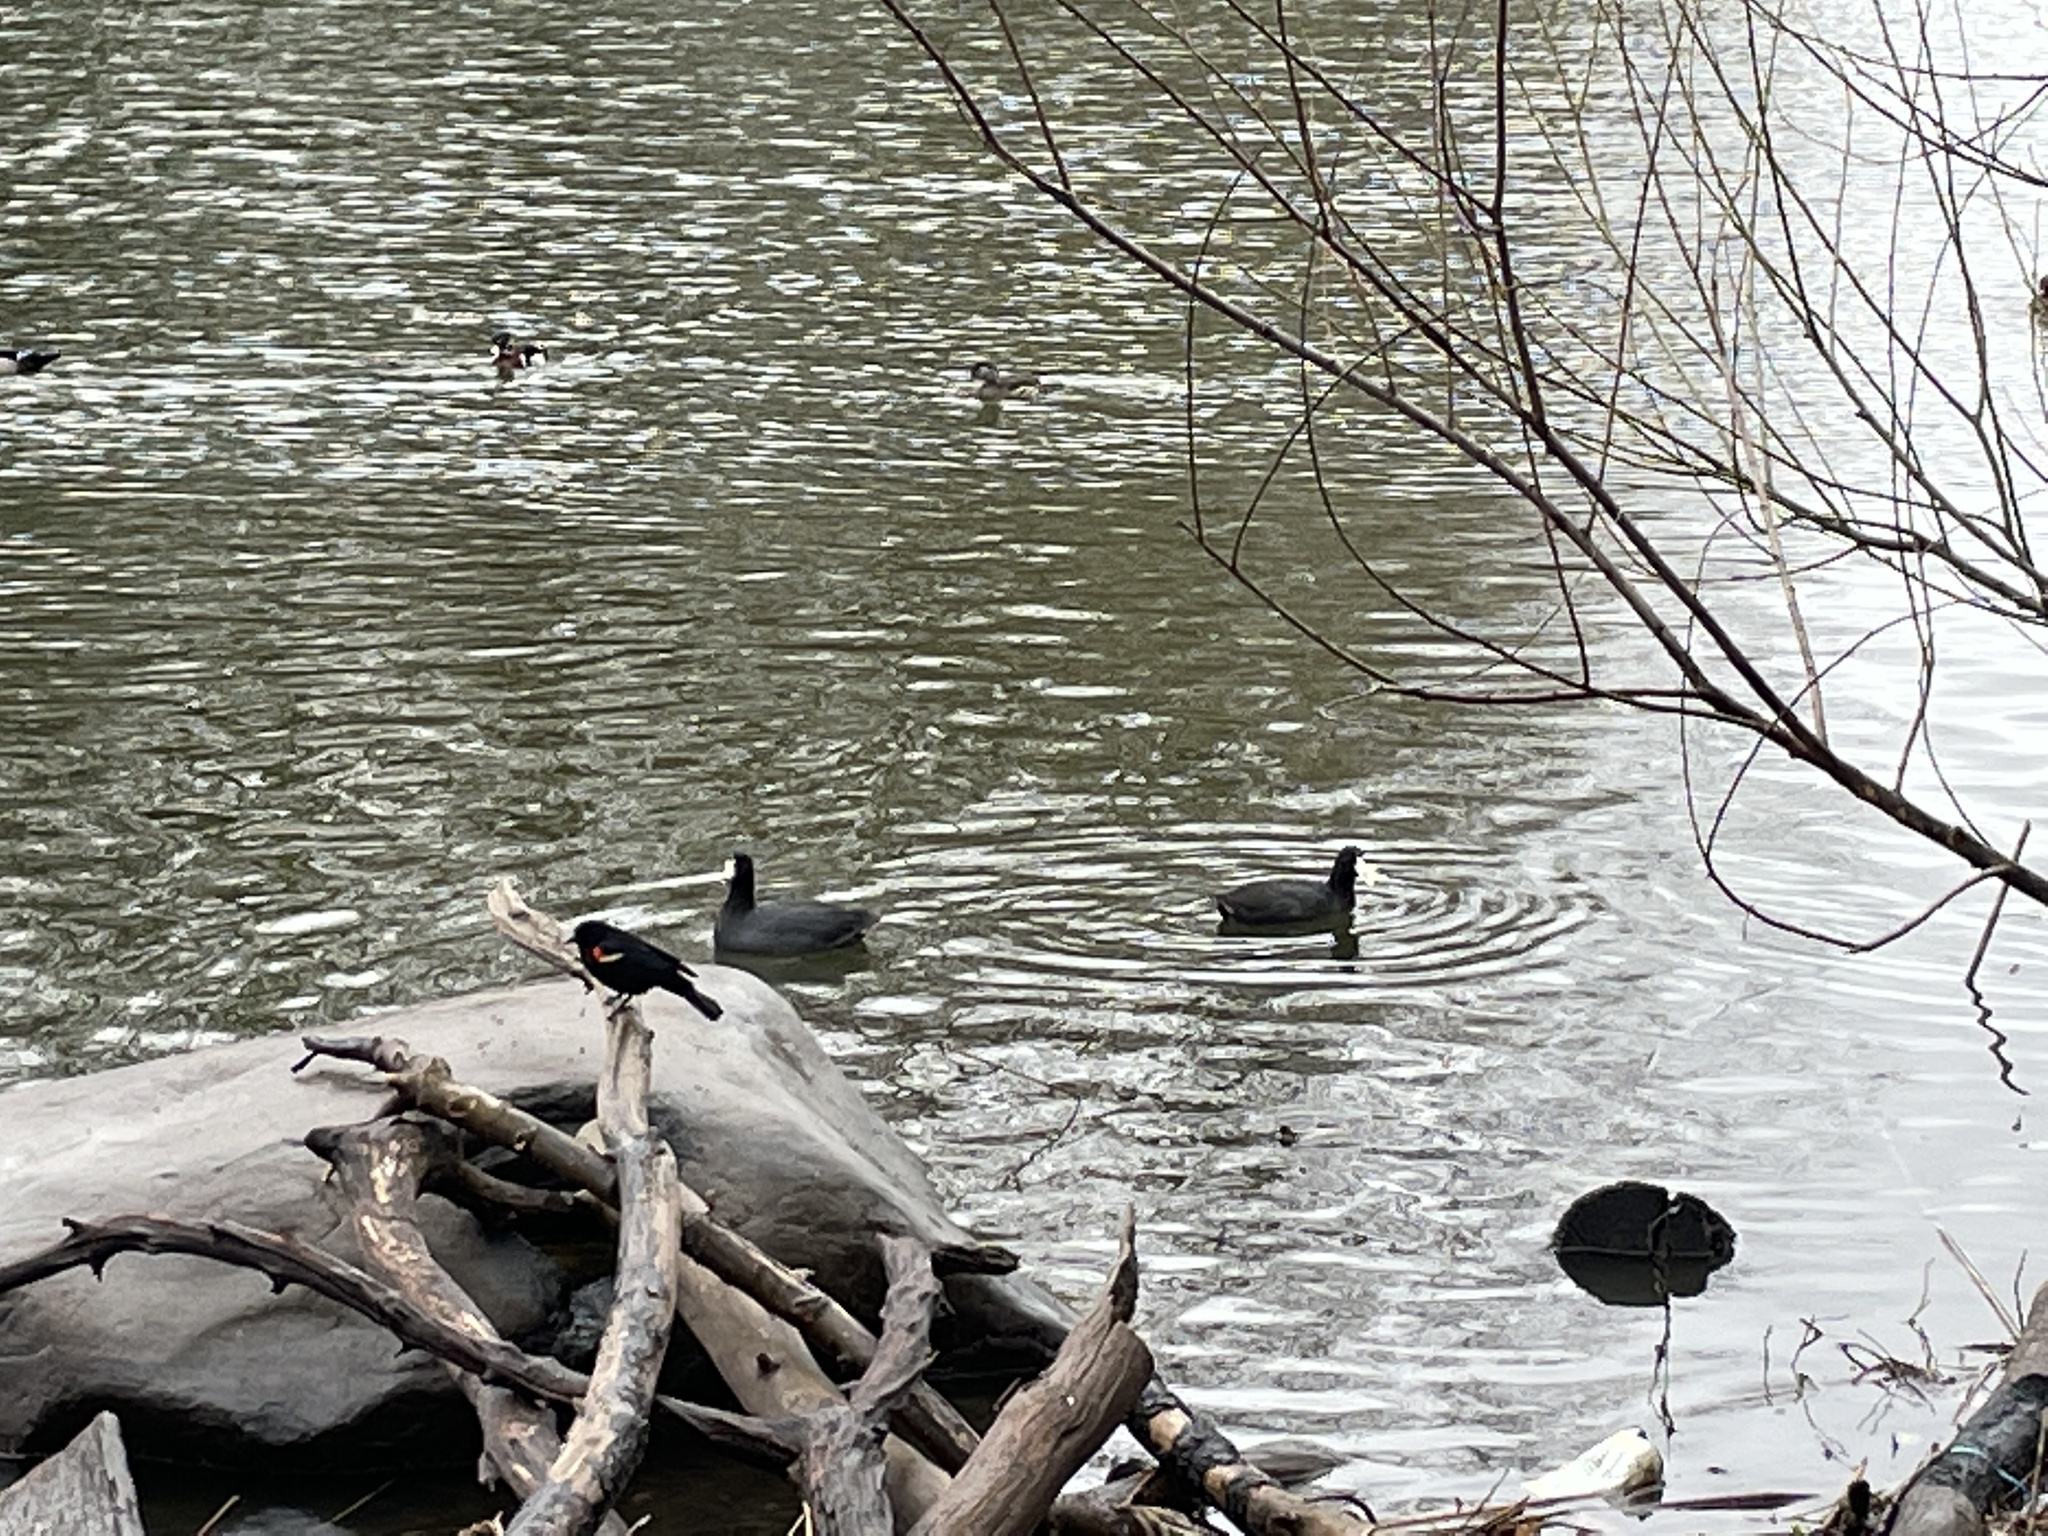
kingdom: Animalia
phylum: Chordata
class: Aves
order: Gruiformes
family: Rallidae
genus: Fulica
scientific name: Fulica americana
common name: American coot
